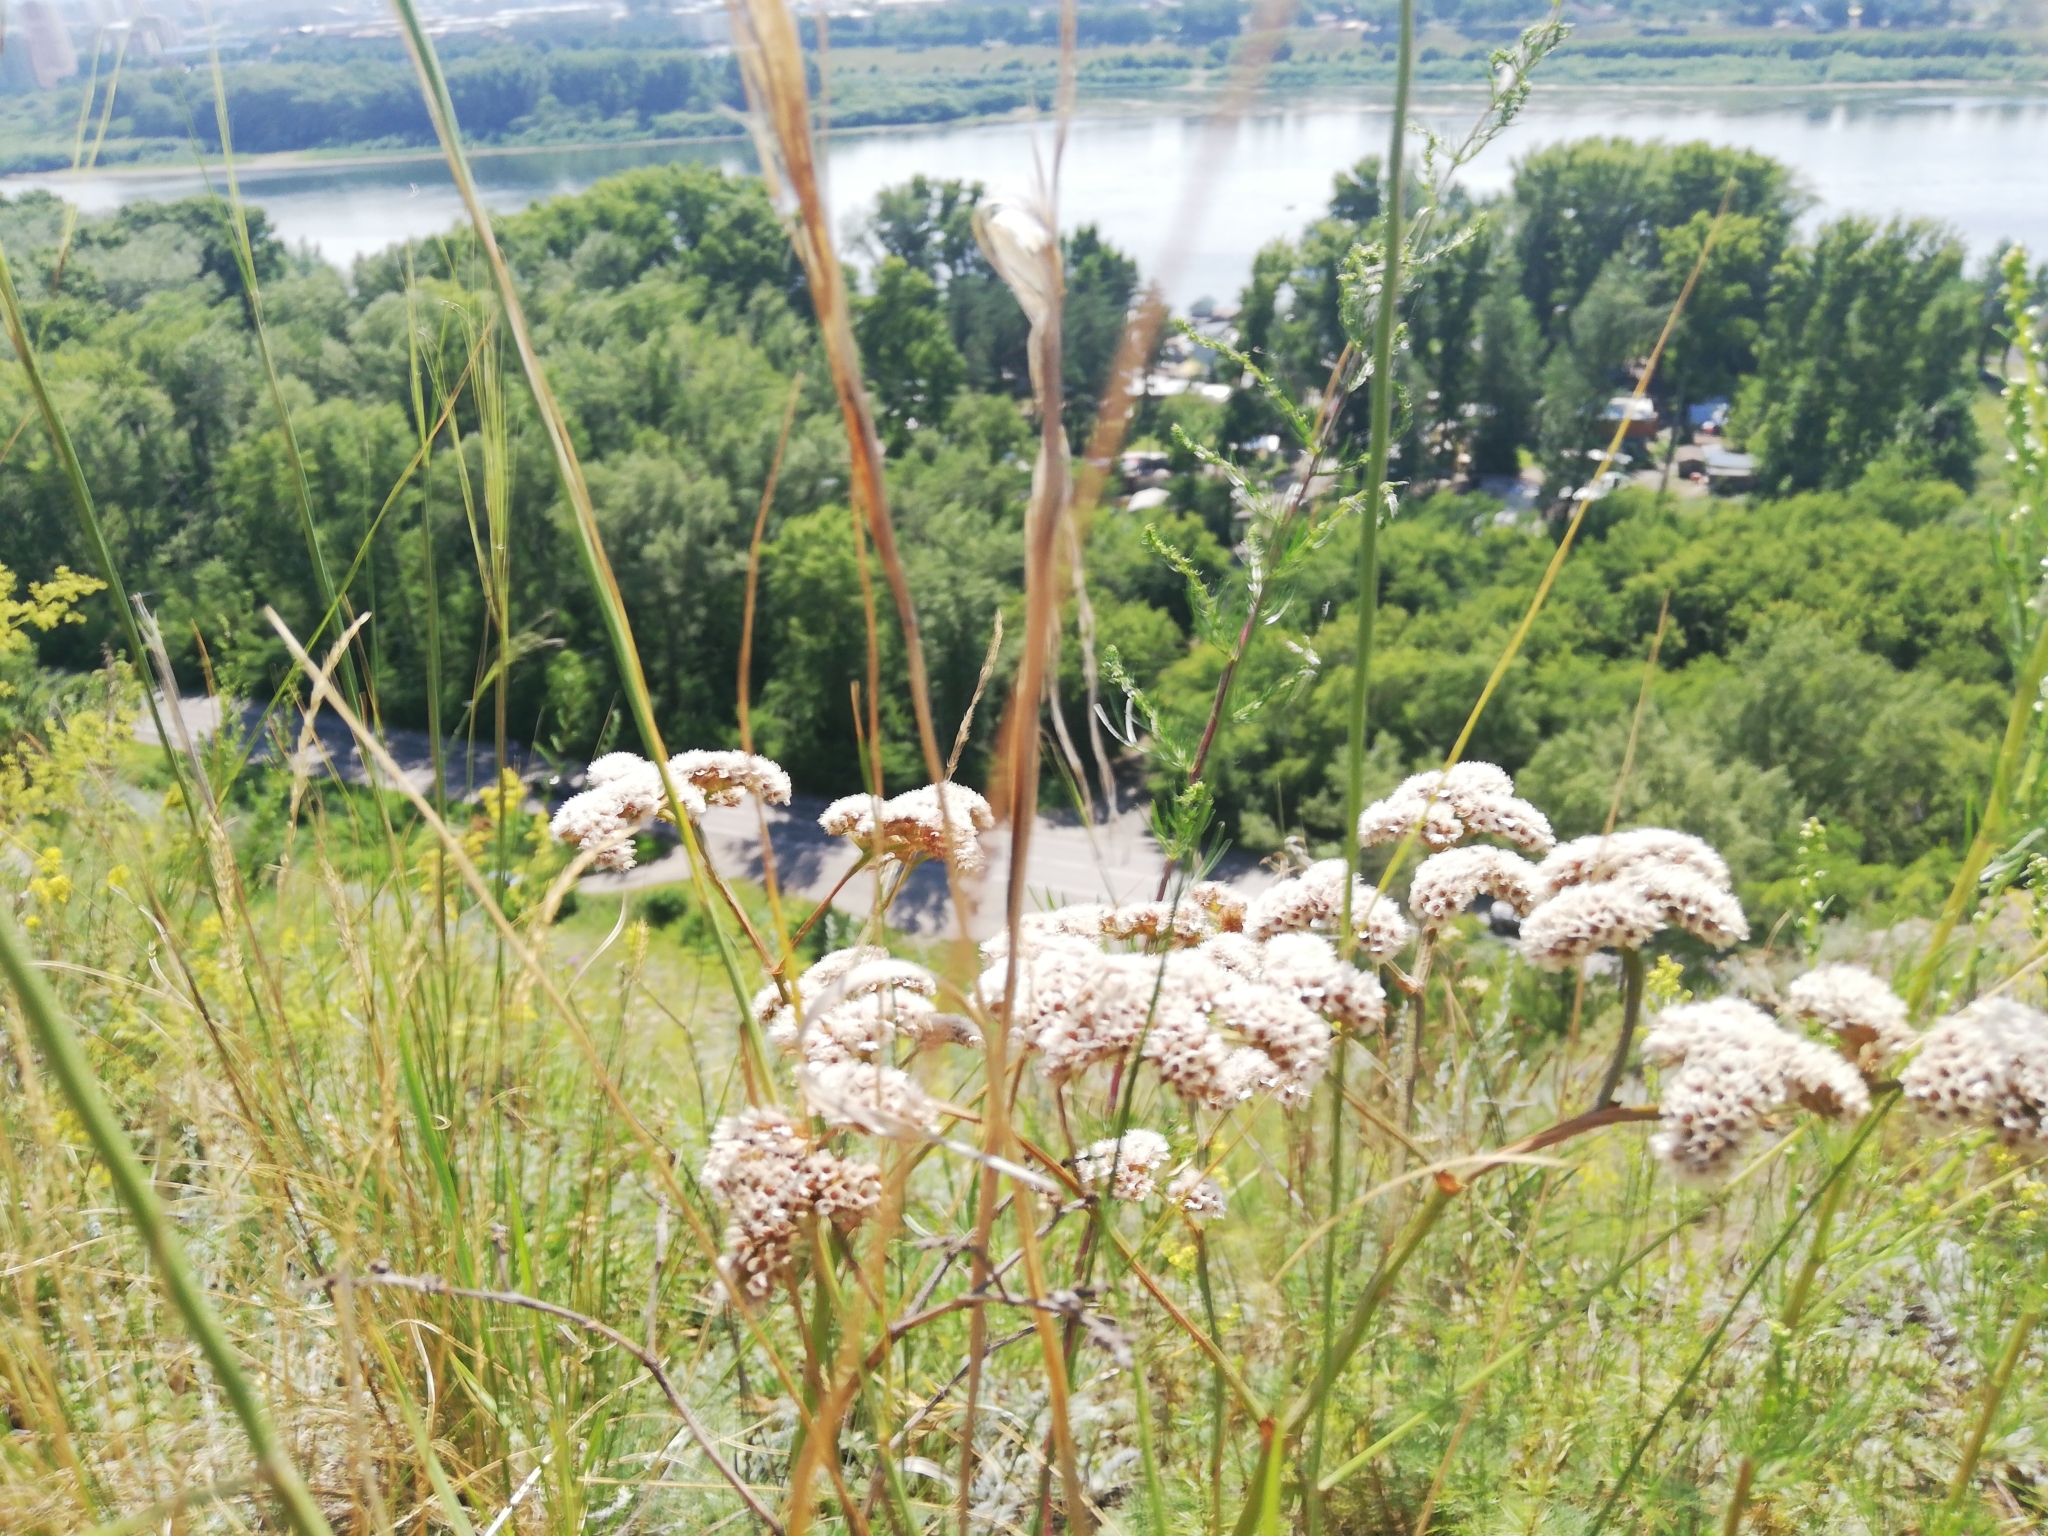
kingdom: Plantae
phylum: Tracheophyta
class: Magnoliopsida
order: Caryophyllales
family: Plumbaginaceae
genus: Goniolimon
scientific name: Goniolimon speciosum
